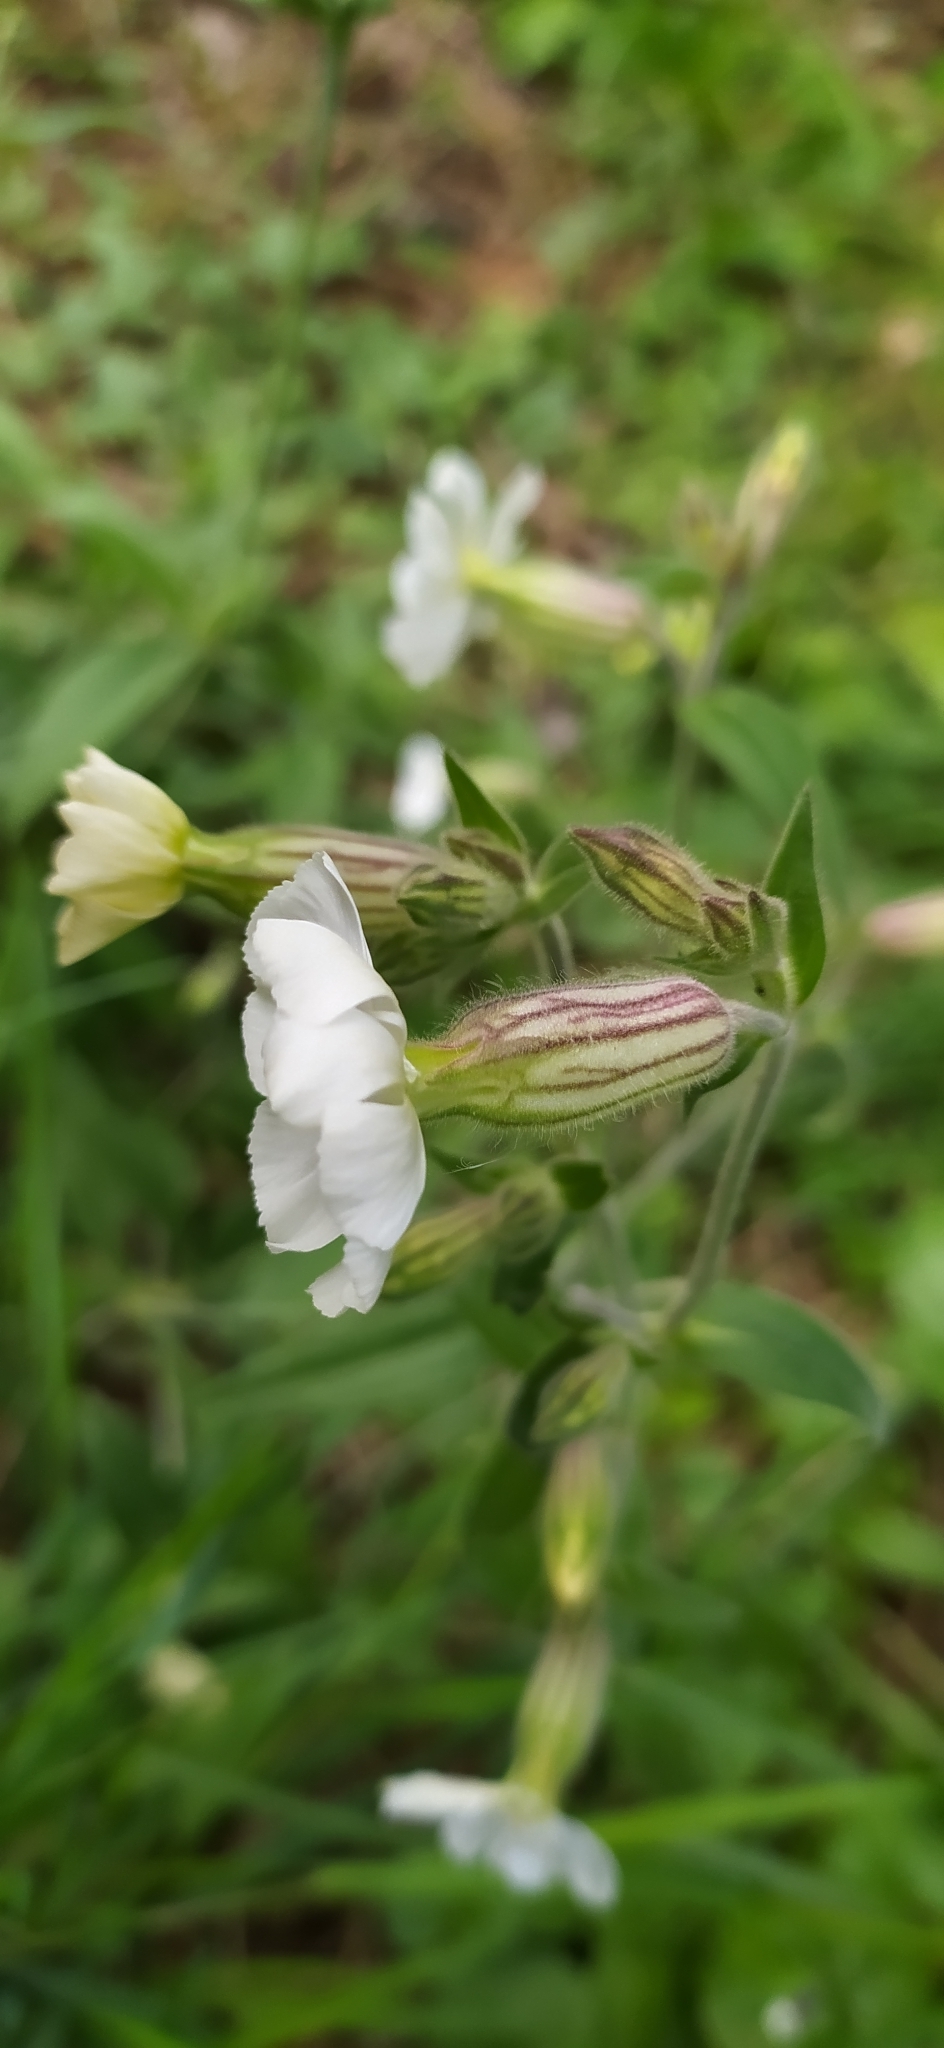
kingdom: Plantae
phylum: Tracheophyta
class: Magnoliopsida
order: Caryophyllales
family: Caryophyllaceae
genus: Silene
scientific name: Silene latifolia
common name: White campion
